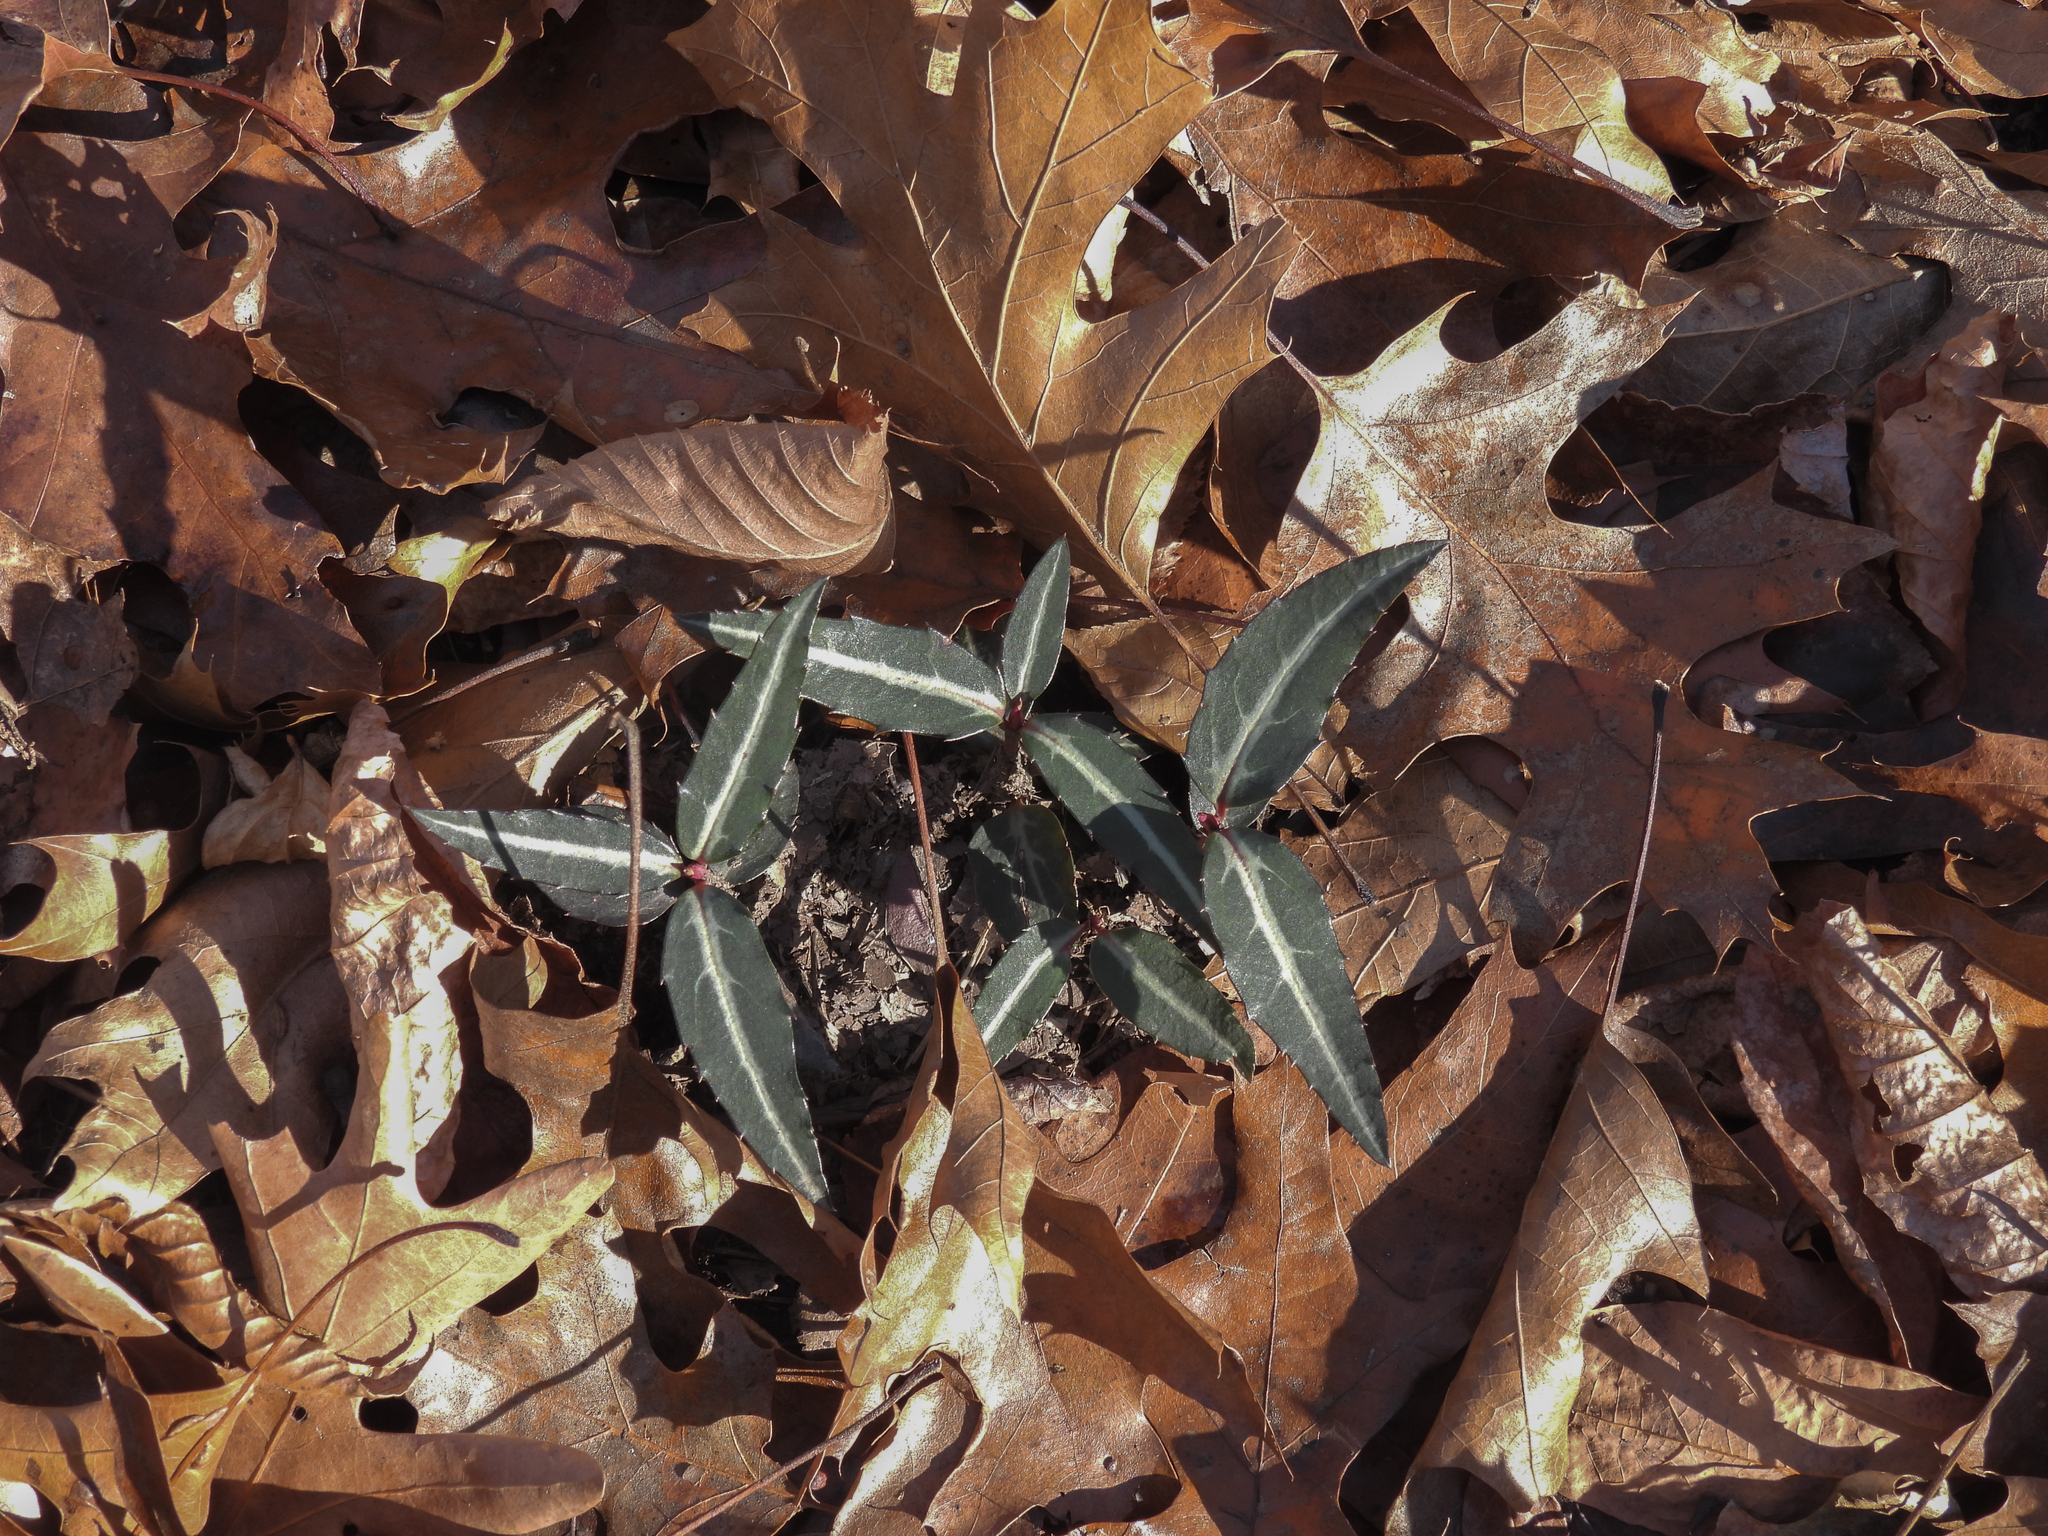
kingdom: Plantae
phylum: Tracheophyta
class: Magnoliopsida
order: Ericales
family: Ericaceae
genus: Chimaphila
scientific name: Chimaphila maculata
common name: Spotted pipsissewa
